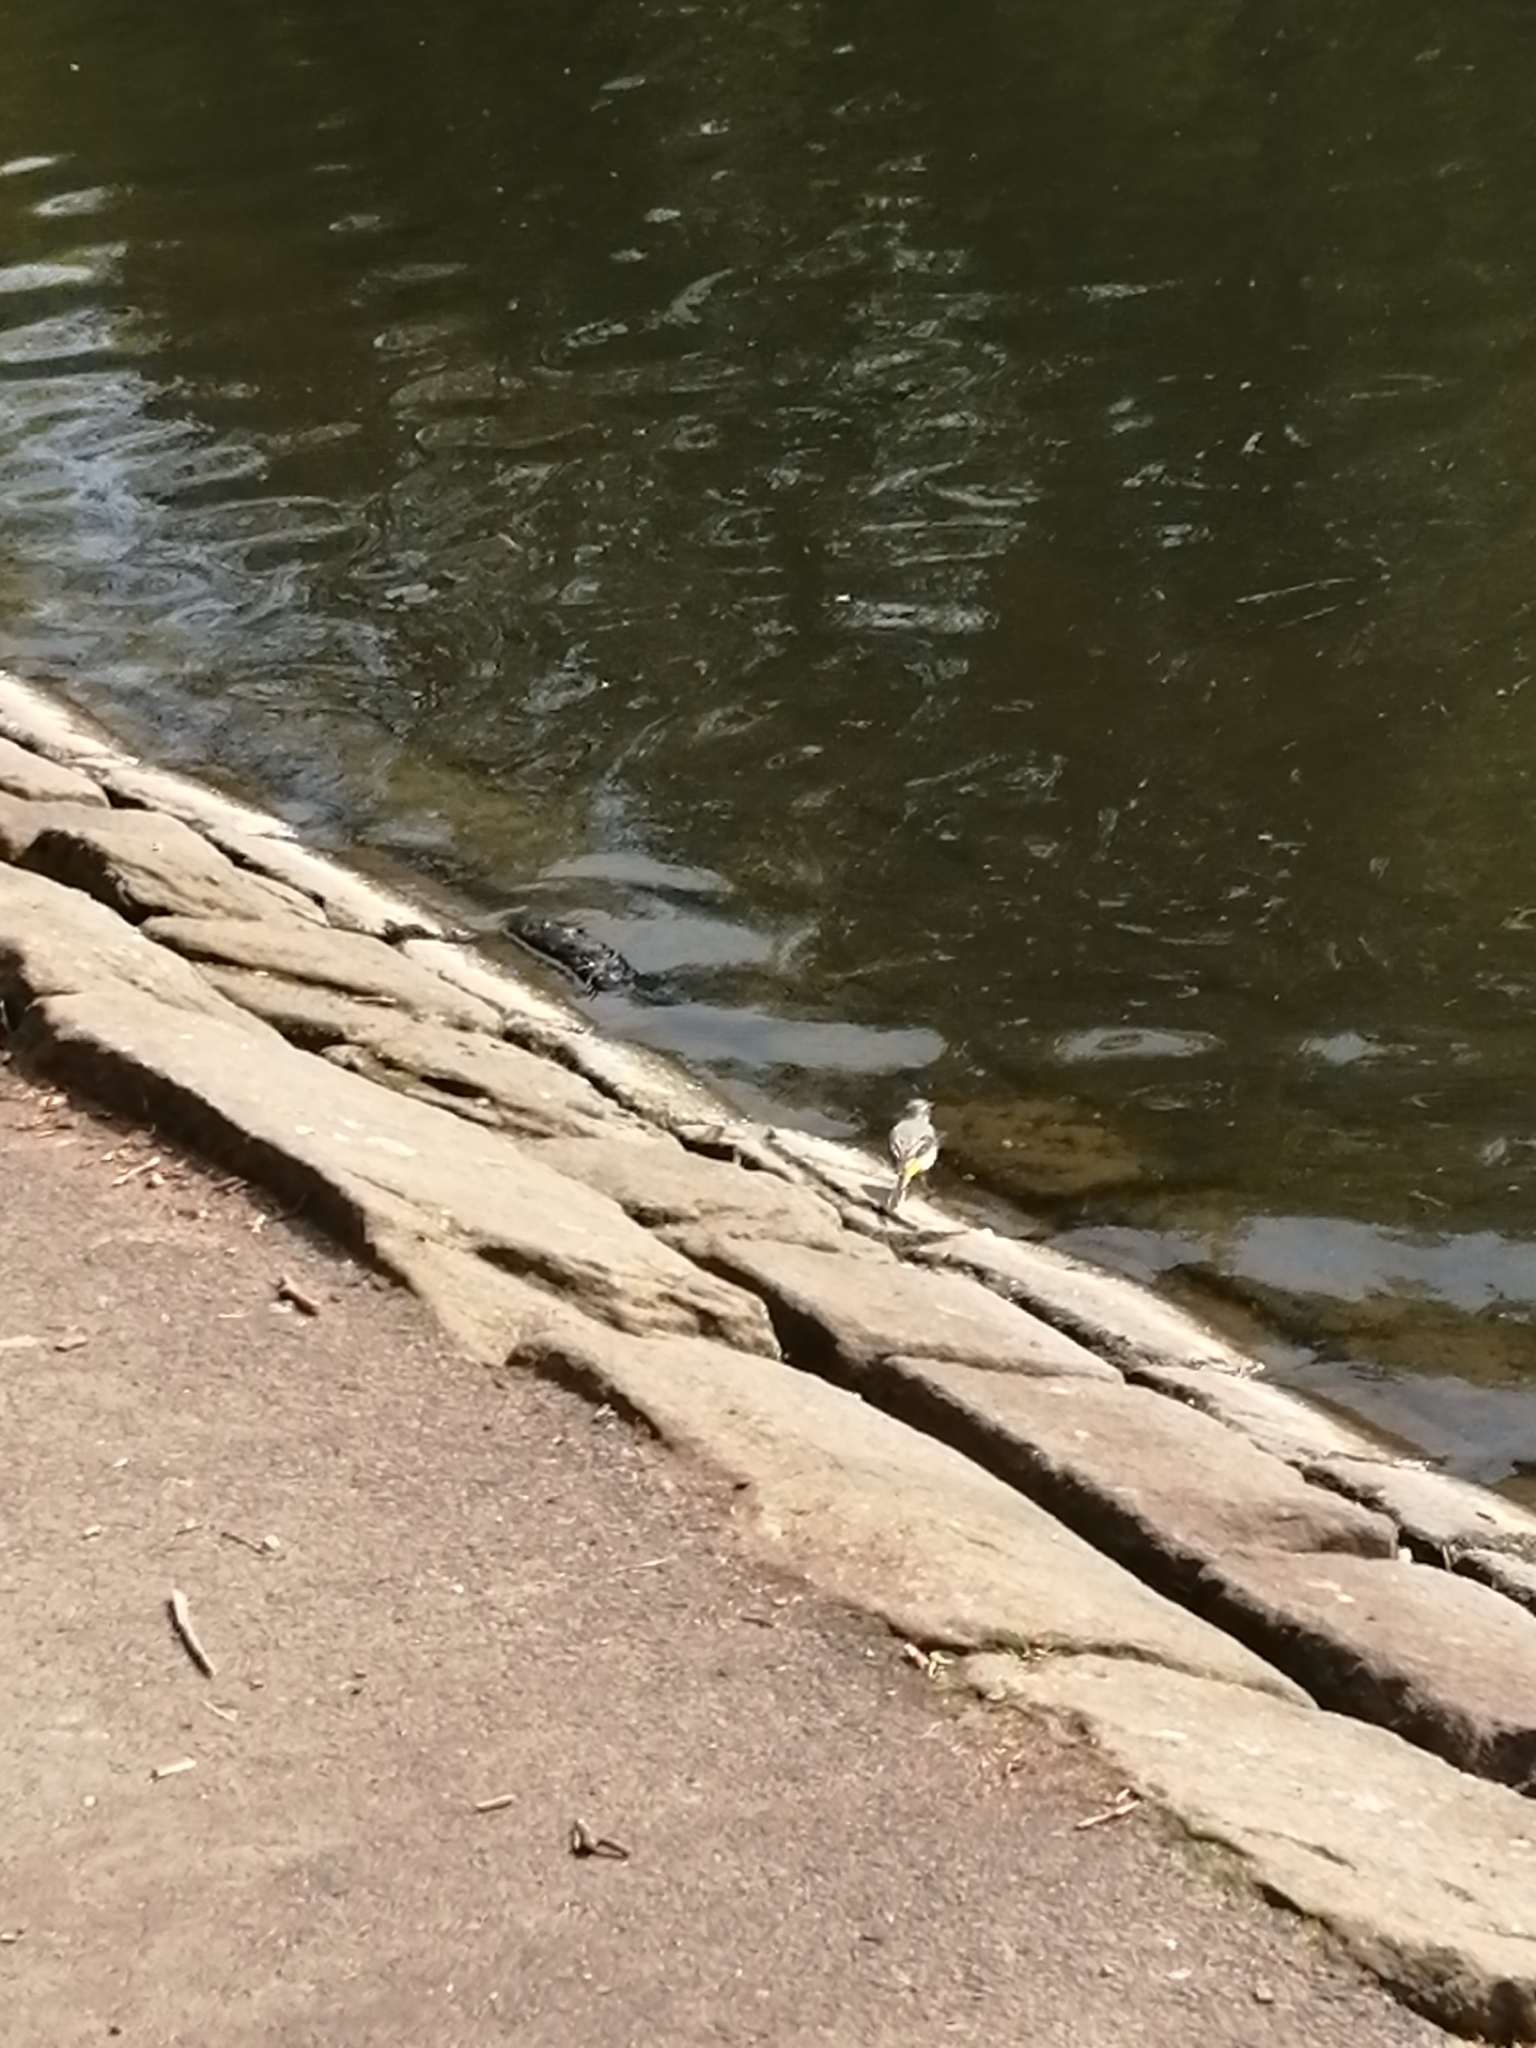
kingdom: Animalia
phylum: Chordata
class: Aves
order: Passeriformes
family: Motacillidae
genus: Motacilla
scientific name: Motacilla cinerea
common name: Grey wagtail
